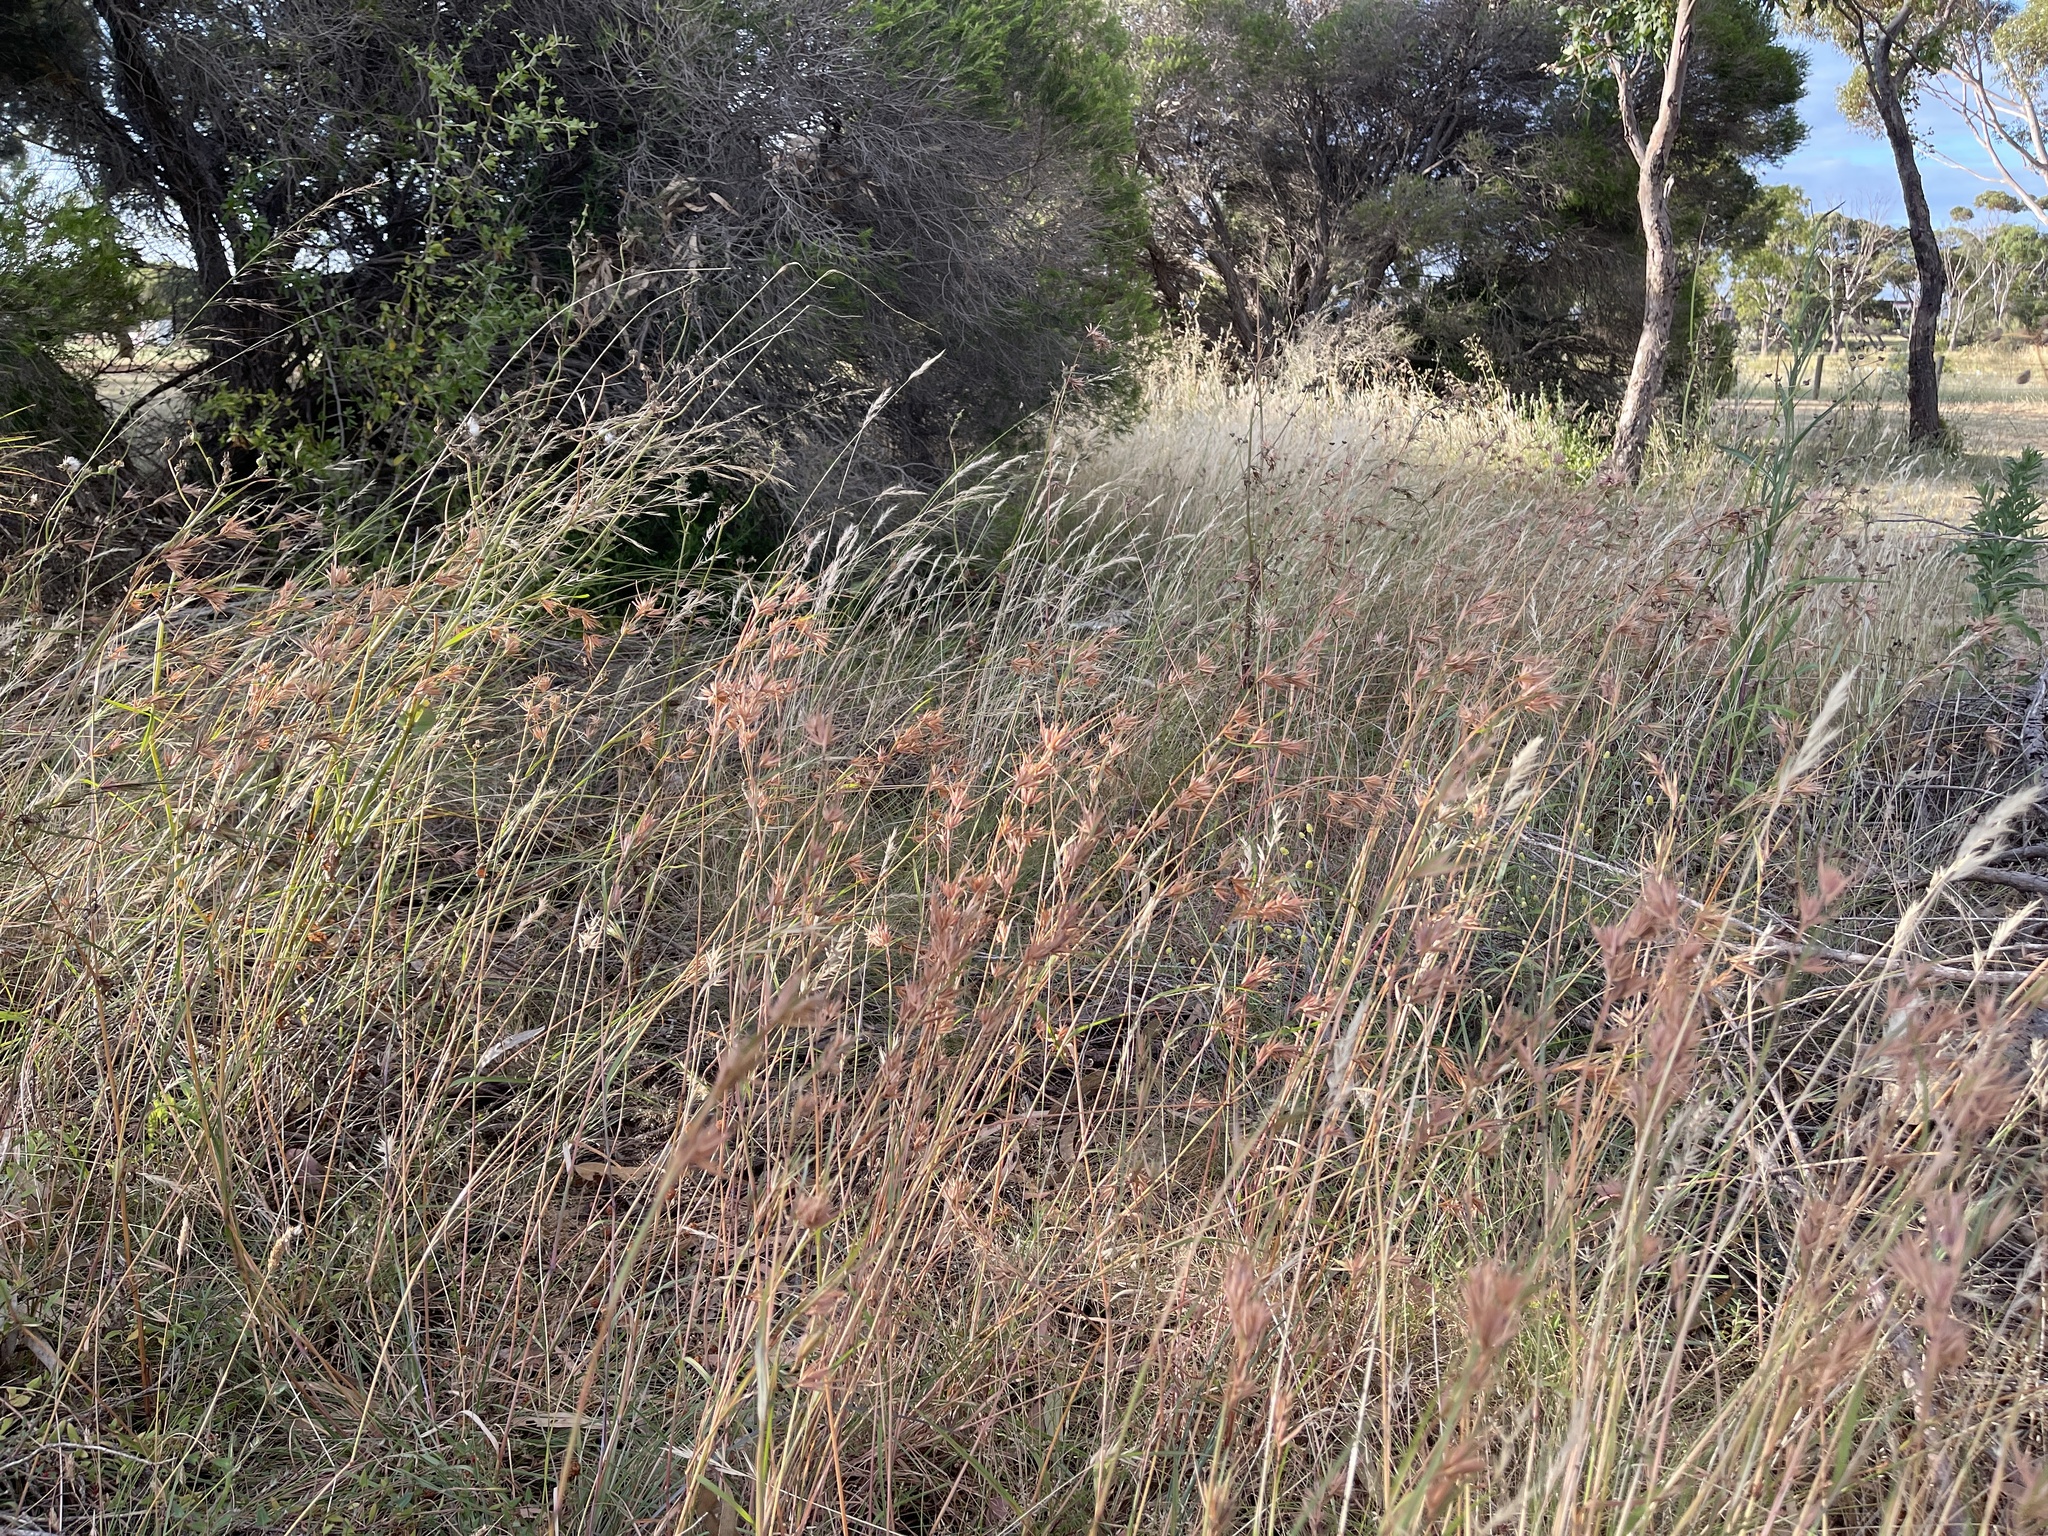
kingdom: Plantae
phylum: Tracheophyta
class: Liliopsida
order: Poales
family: Poaceae
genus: Themeda
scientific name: Themeda triandra
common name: Kangaroo grass
